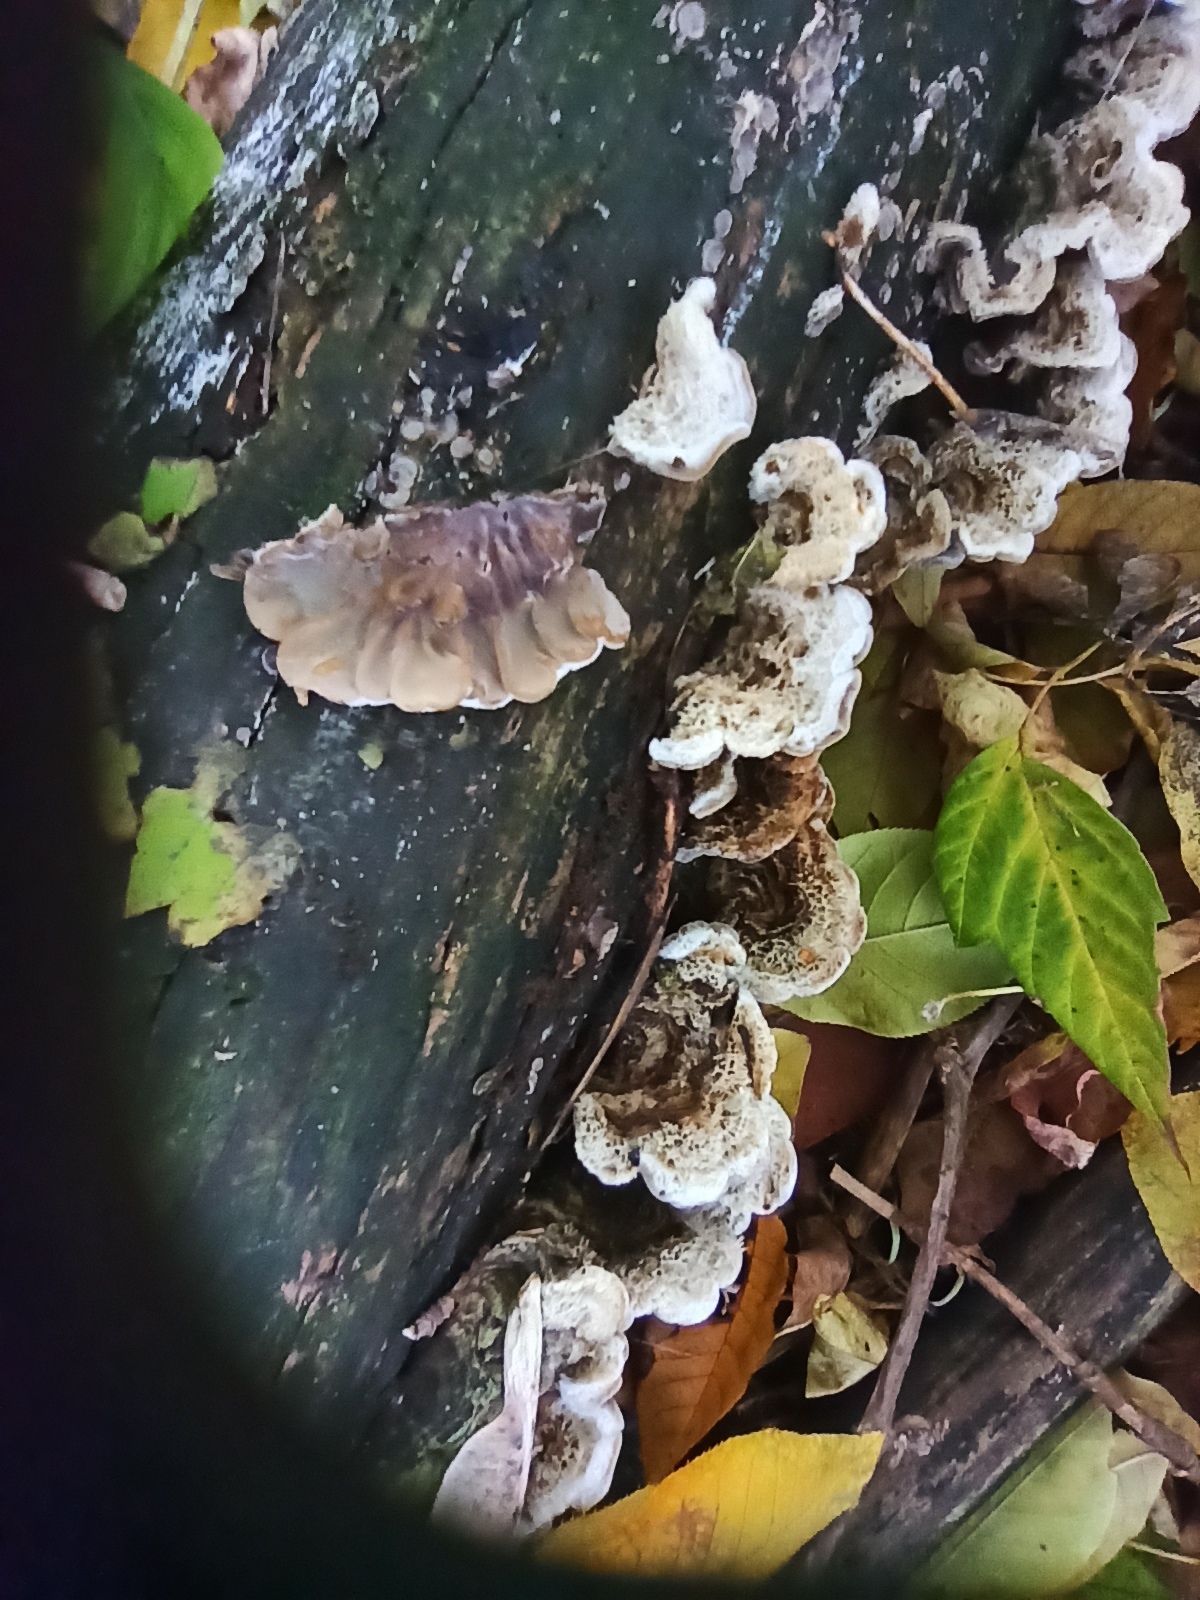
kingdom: Fungi
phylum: Basidiomycota
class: Agaricomycetes
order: Auriculariales
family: Auriculariaceae
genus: Auricularia
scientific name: Auricularia mesenterica
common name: Tripe fungus
